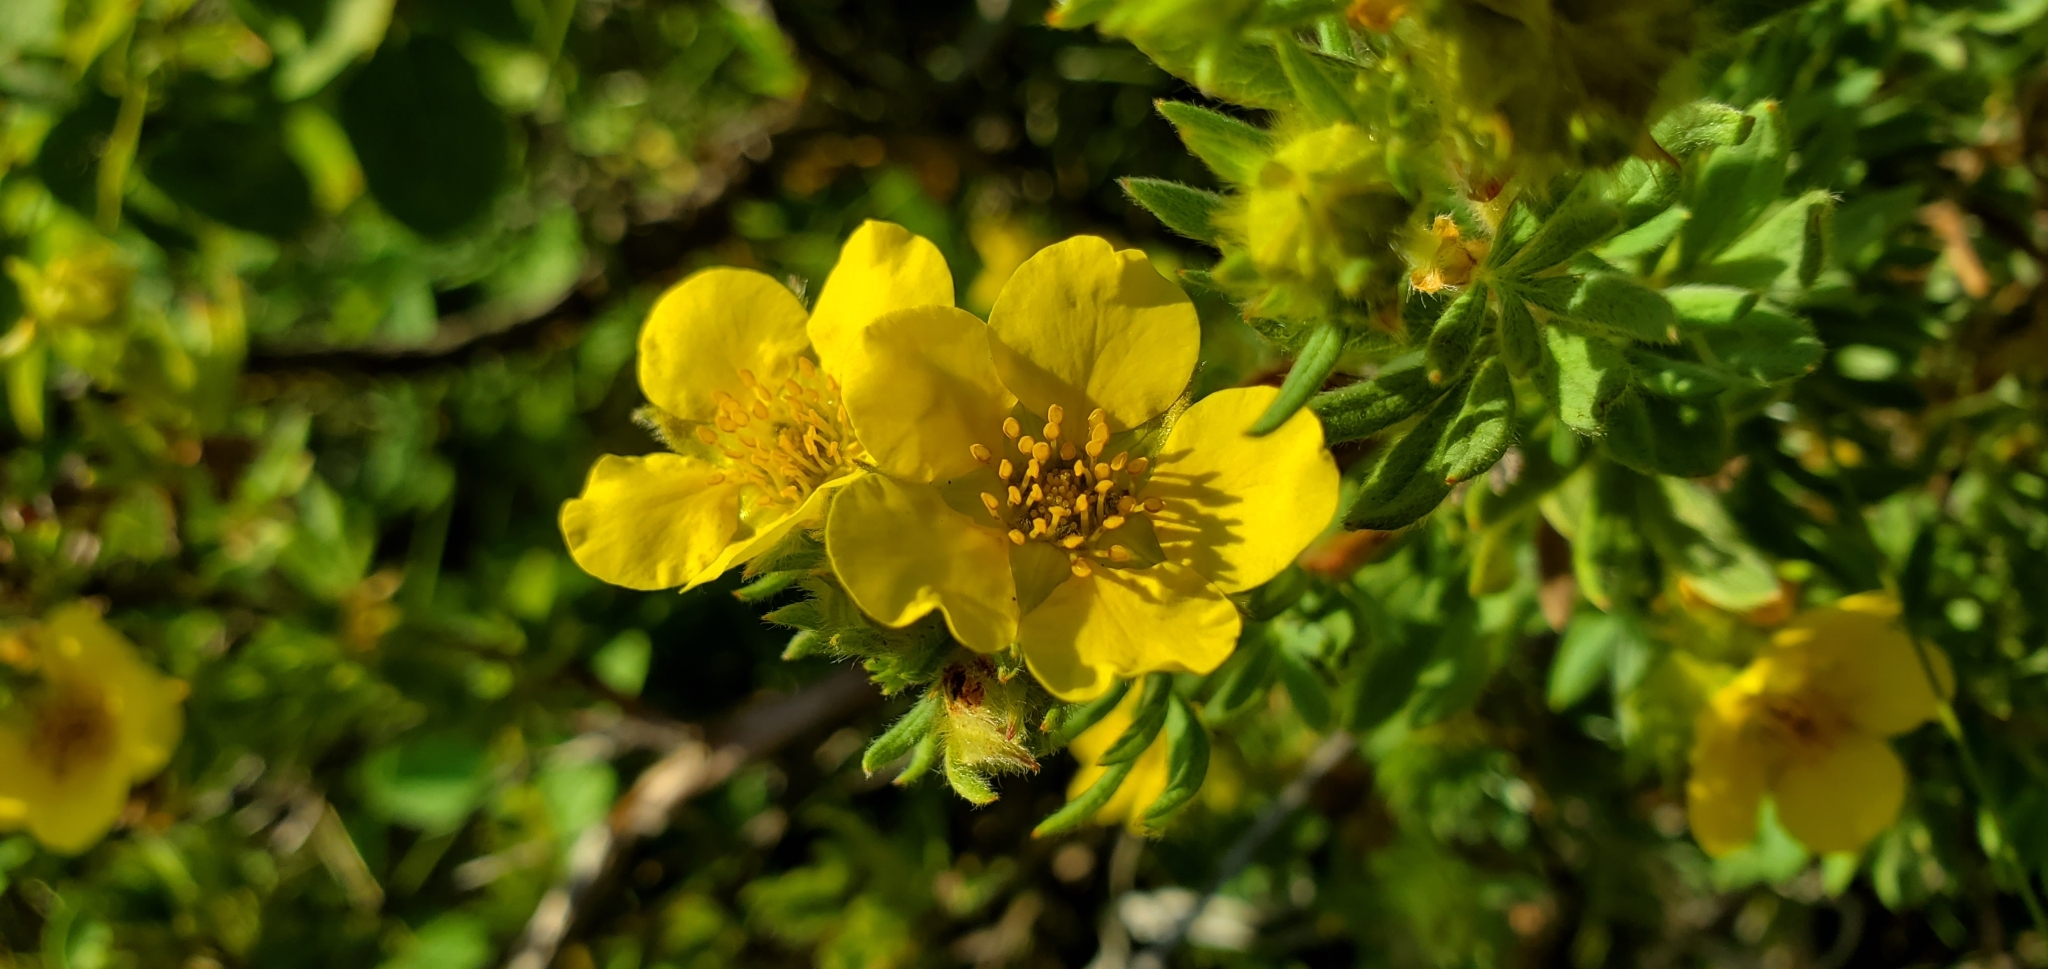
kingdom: Plantae
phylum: Tracheophyta
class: Magnoliopsida
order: Rosales
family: Rosaceae
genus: Dasiphora
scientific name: Dasiphora fruticosa
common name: Shrubby cinquefoil
